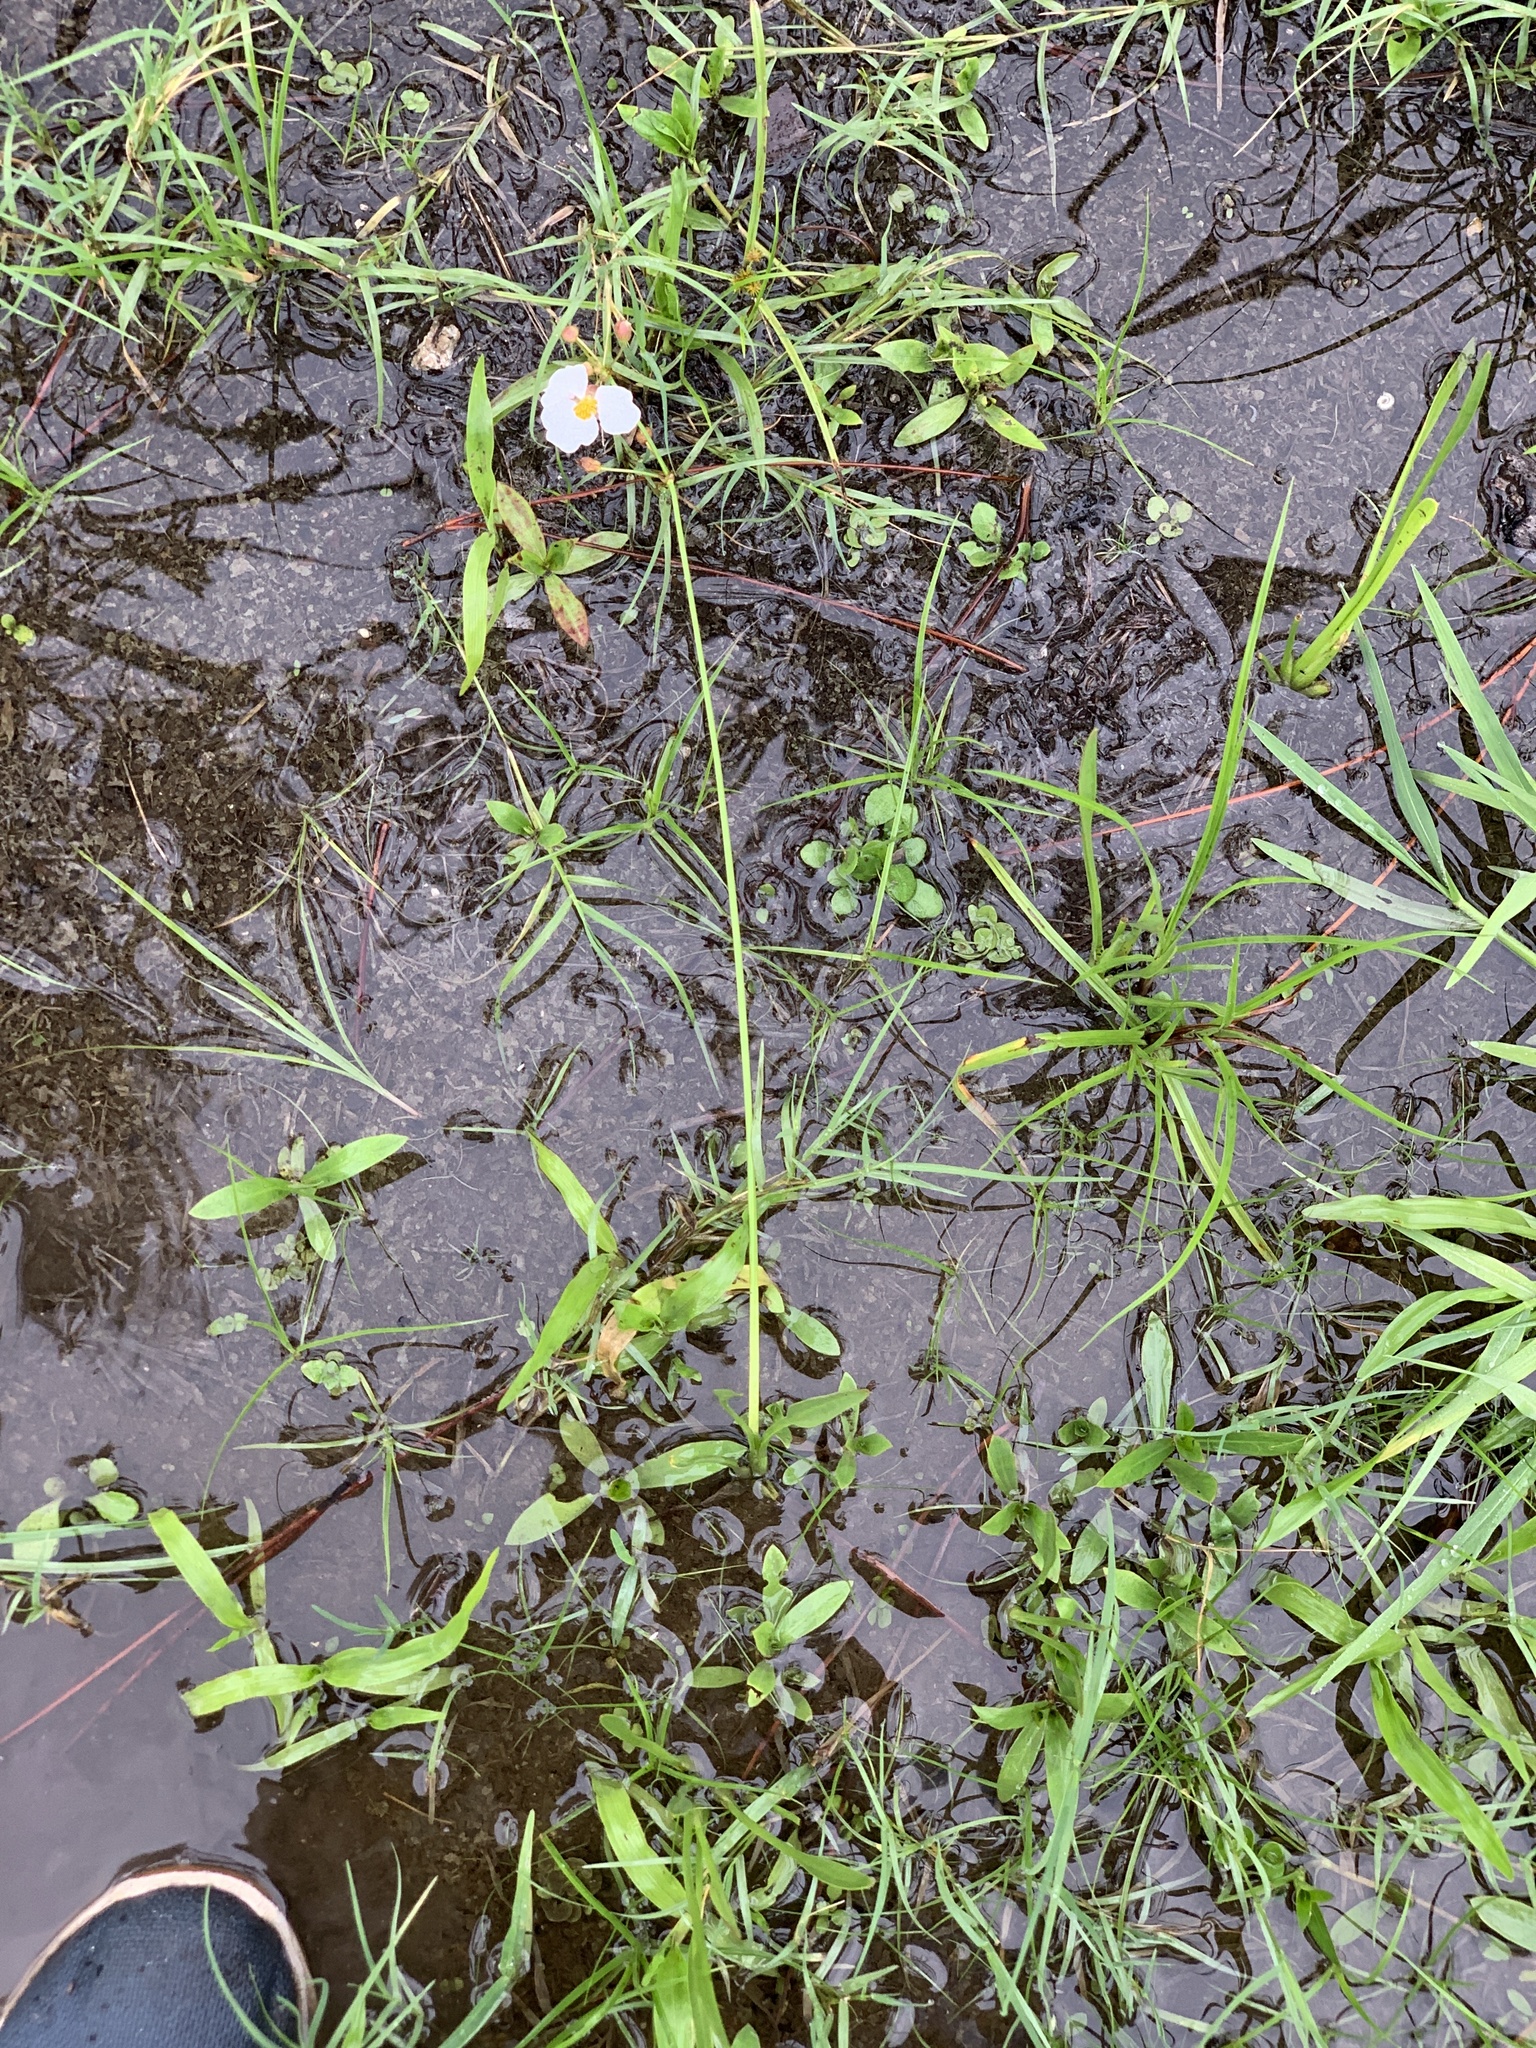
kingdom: Plantae
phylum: Tracheophyta
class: Liliopsida
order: Alismatales
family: Alismataceae
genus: Sagittaria
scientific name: Sagittaria graminea
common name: Grass-leaved arrowhead
